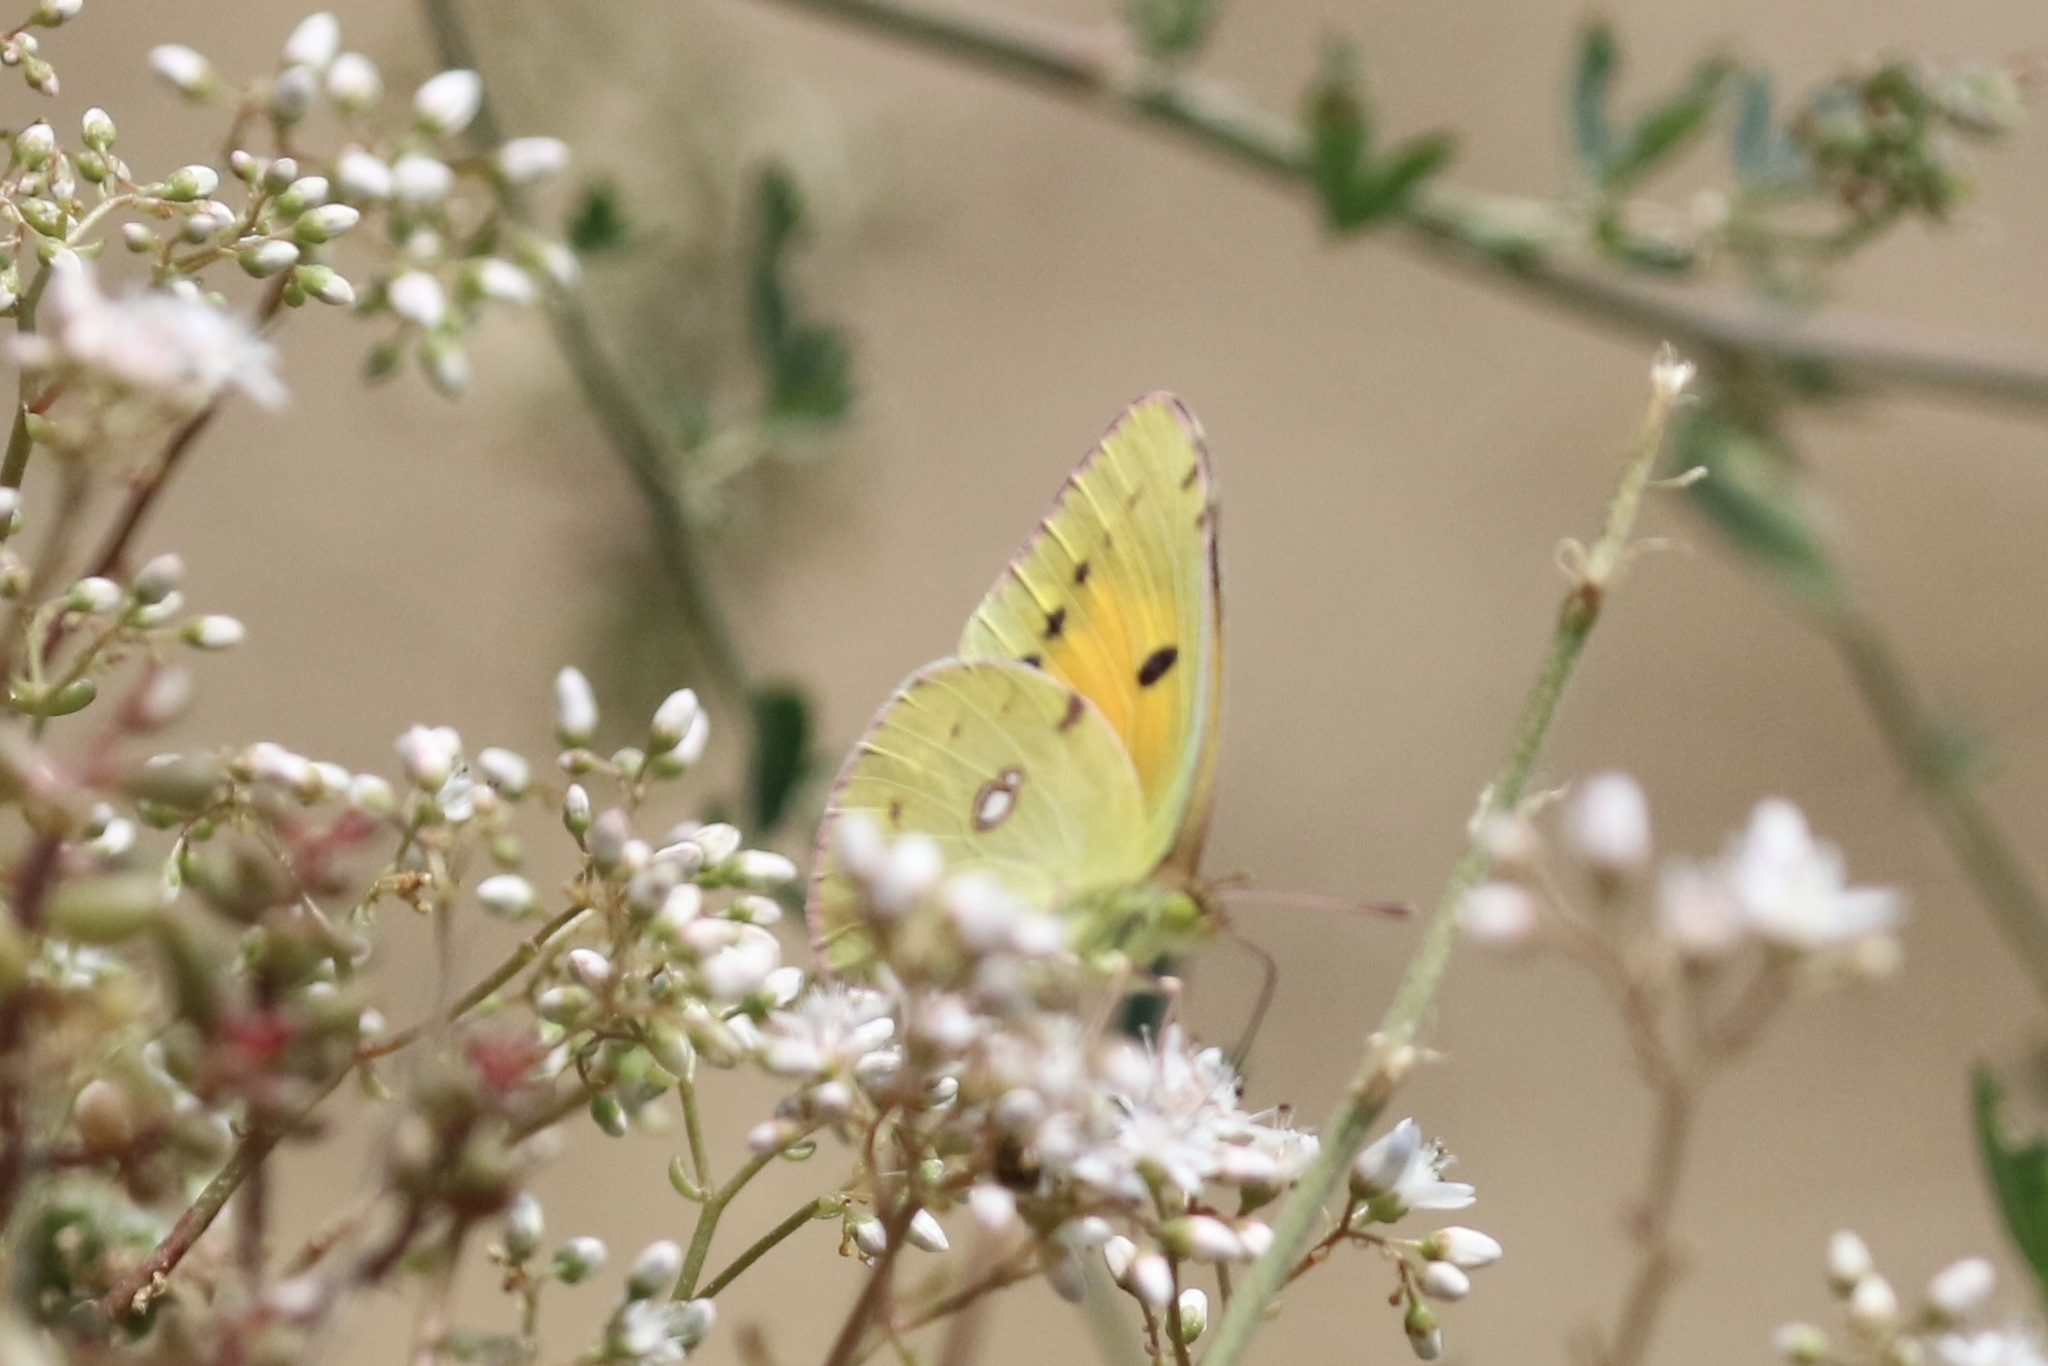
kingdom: Animalia
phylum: Arthropoda
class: Insecta
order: Lepidoptera
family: Pieridae
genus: Colias
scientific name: Colias croceus
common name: Clouded yellow
